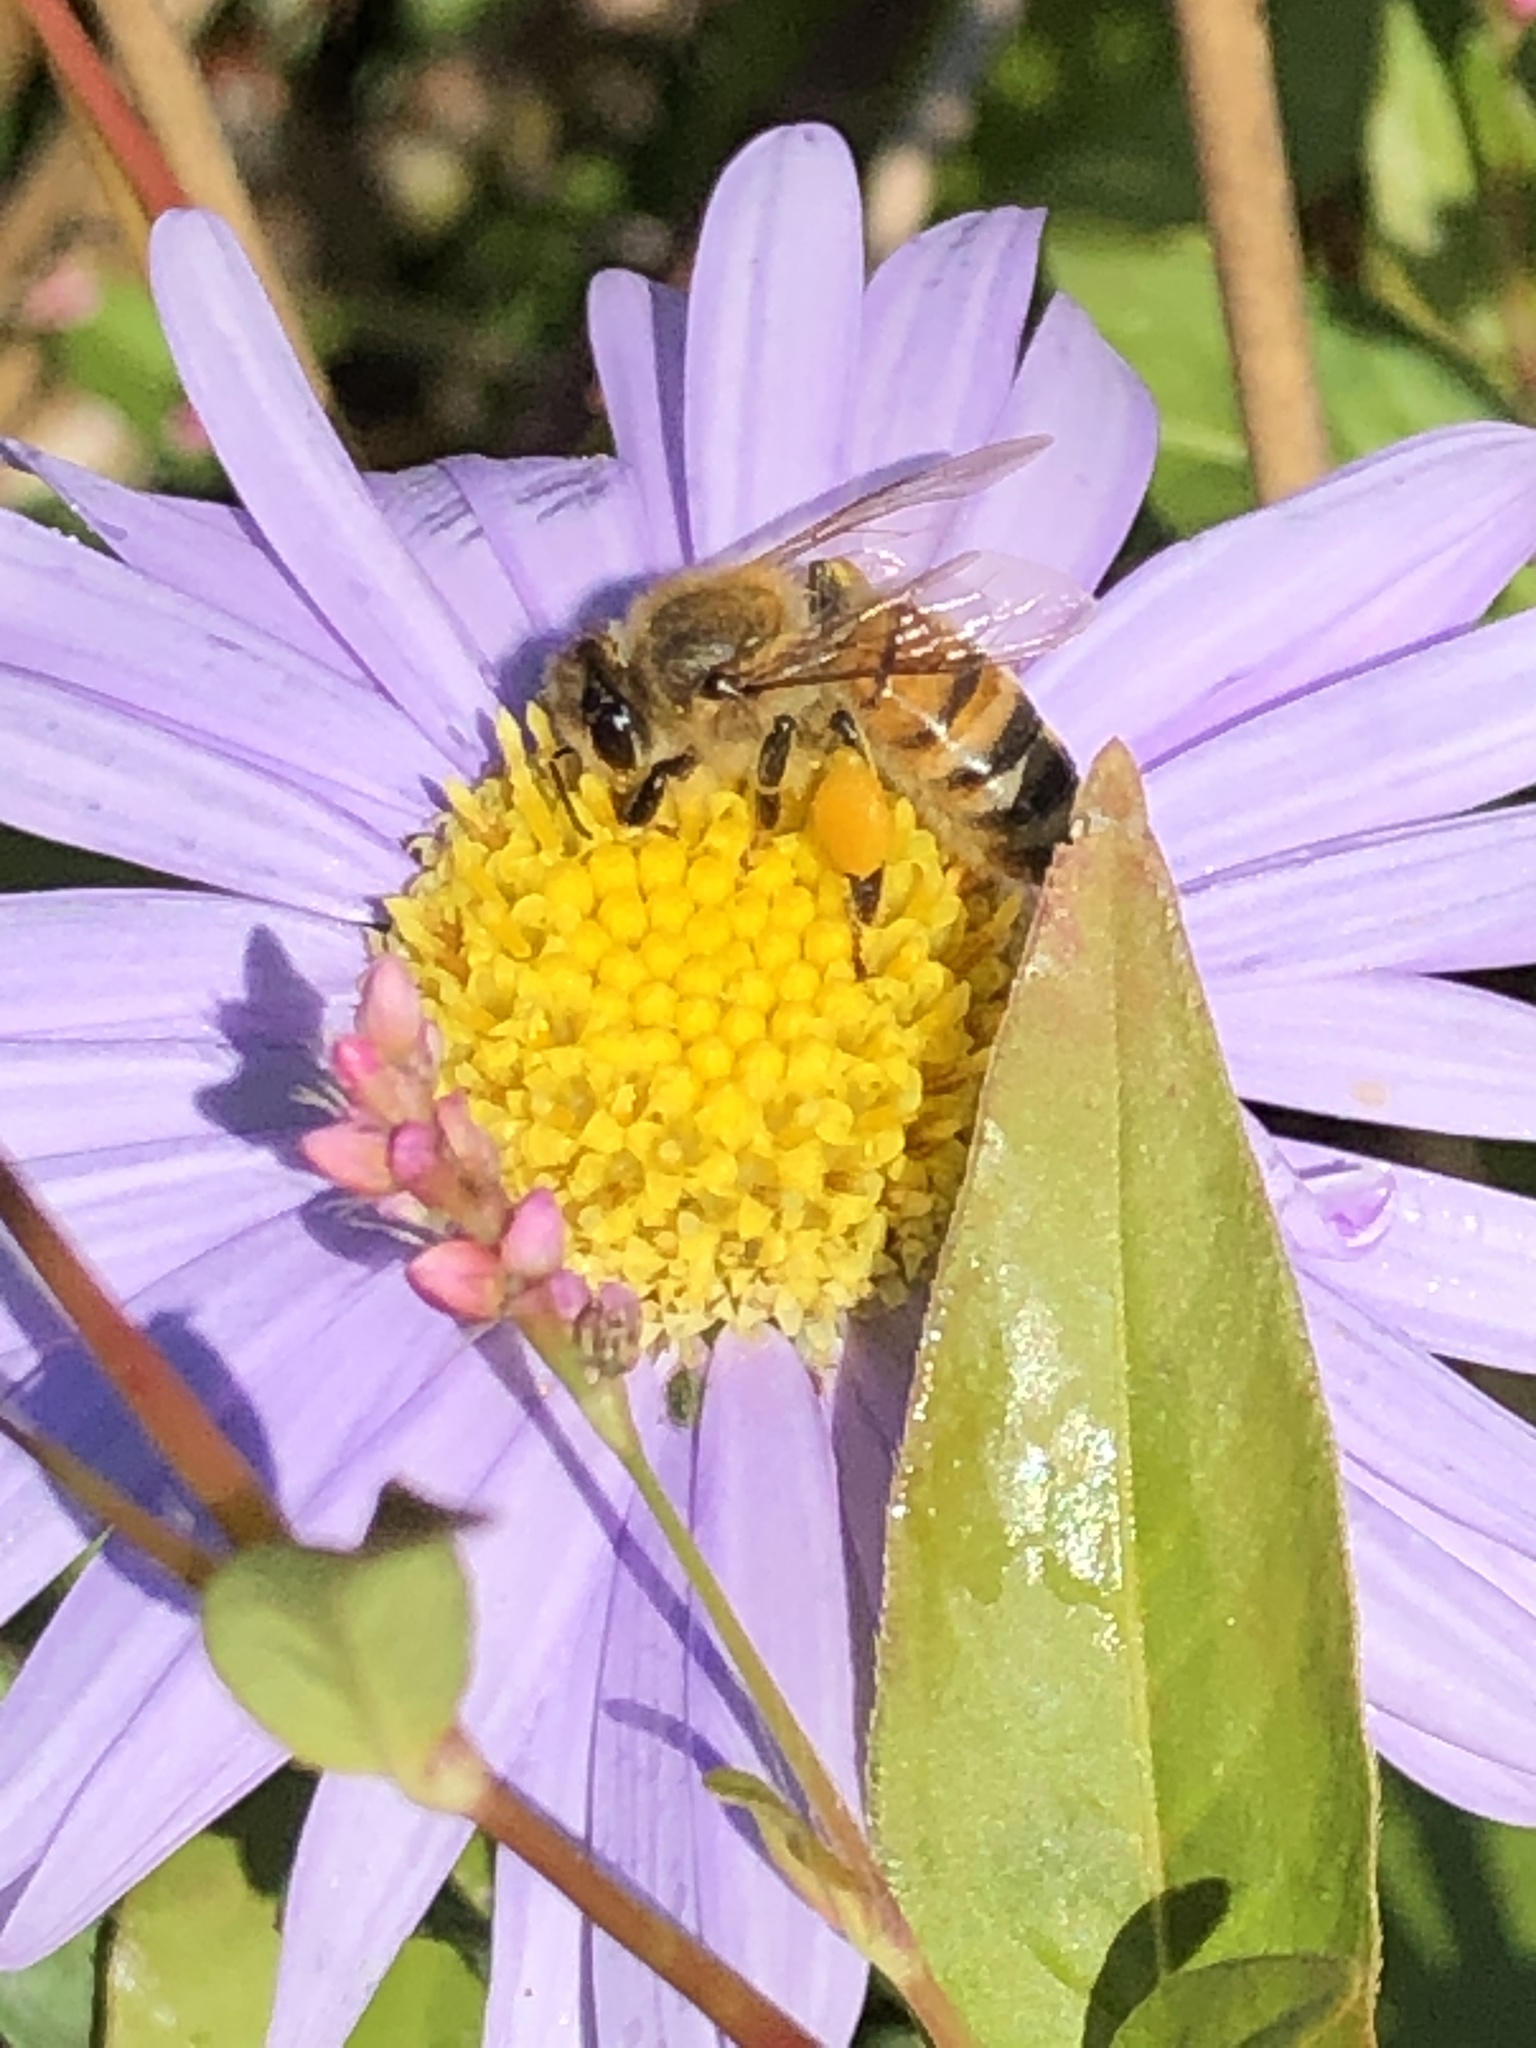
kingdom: Animalia
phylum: Arthropoda
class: Insecta
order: Hymenoptera
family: Apidae
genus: Apis
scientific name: Apis mellifera
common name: Honey bee
